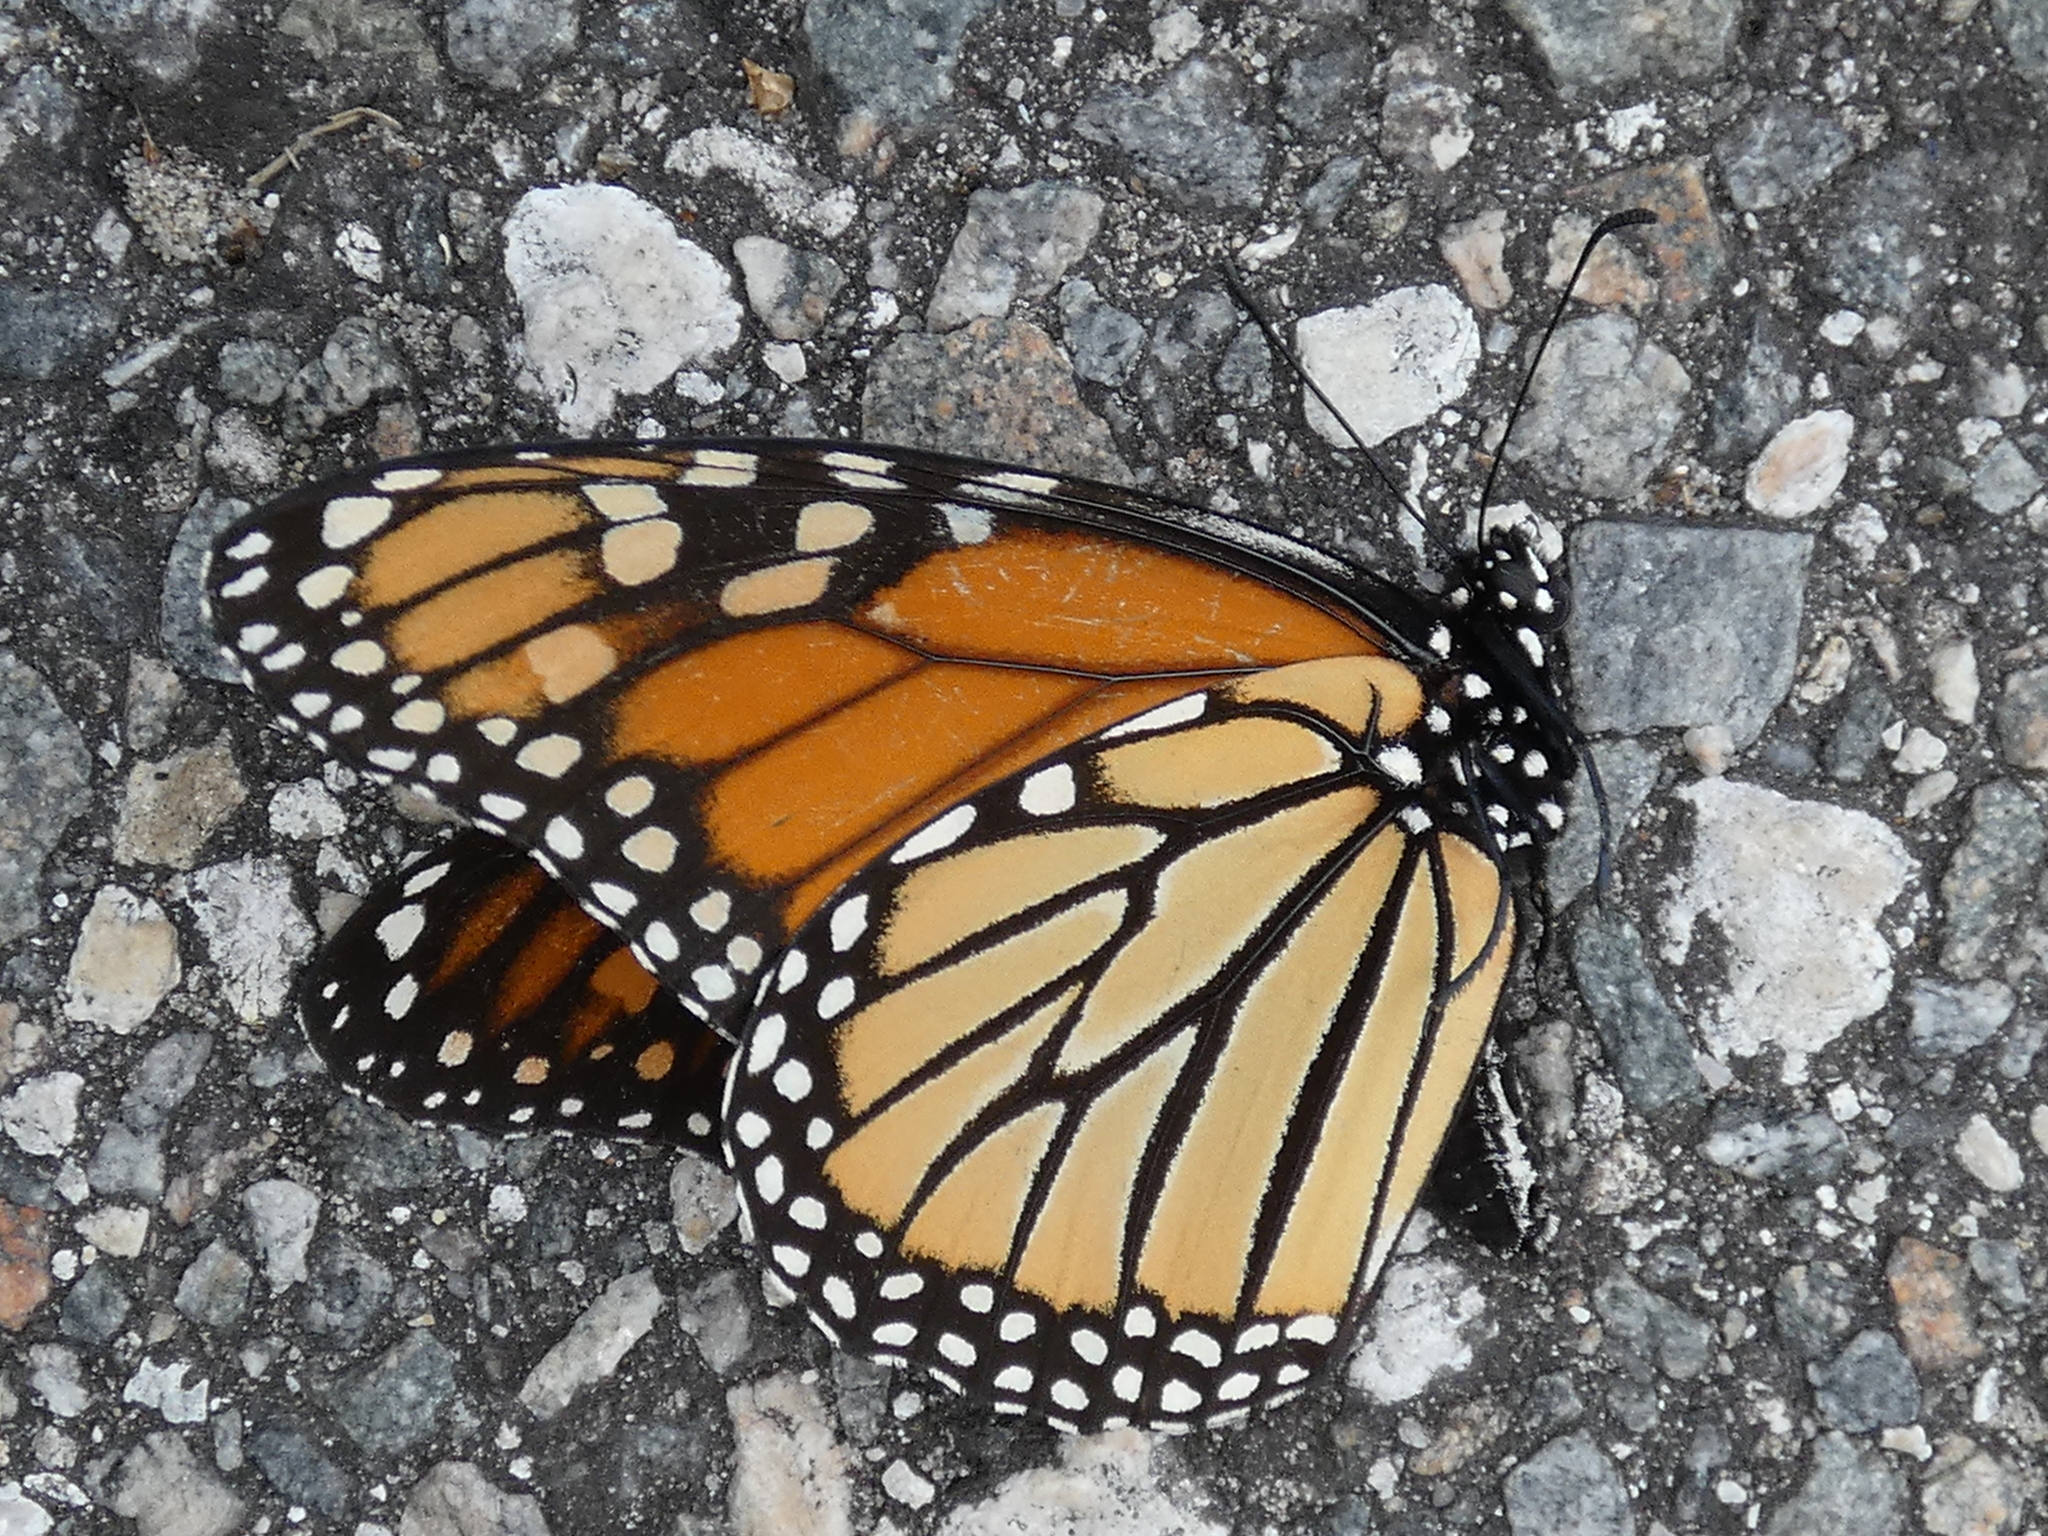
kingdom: Animalia
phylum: Arthropoda
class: Insecta
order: Lepidoptera
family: Nymphalidae
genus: Danaus
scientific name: Danaus plexippus
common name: Monarch
